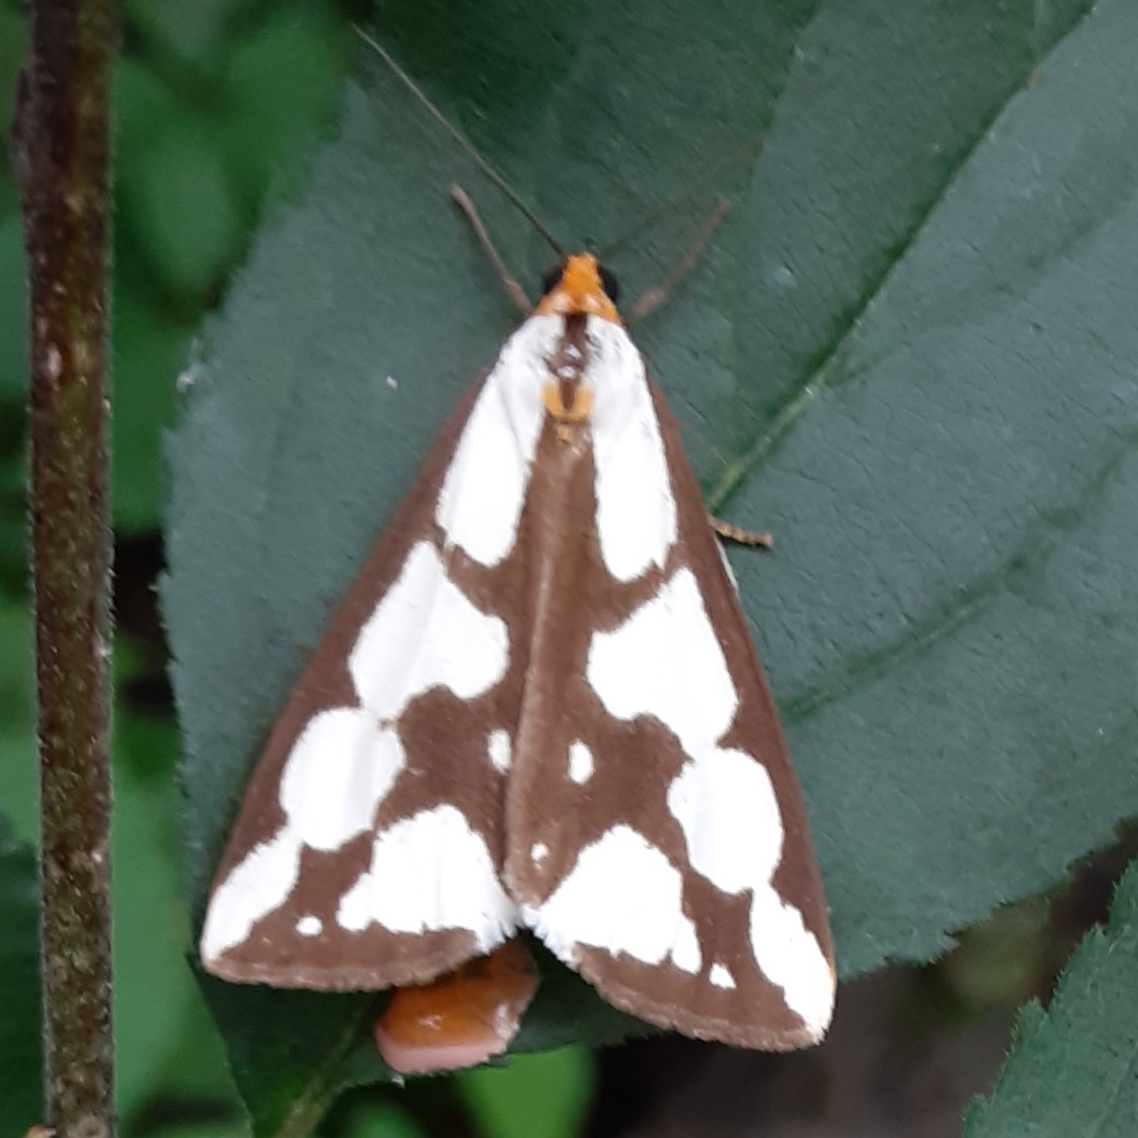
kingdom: Animalia
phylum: Arthropoda
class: Insecta
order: Lepidoptera
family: Erebidae
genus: Haploa
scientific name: Haploa confusa
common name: Confused haploa moth
